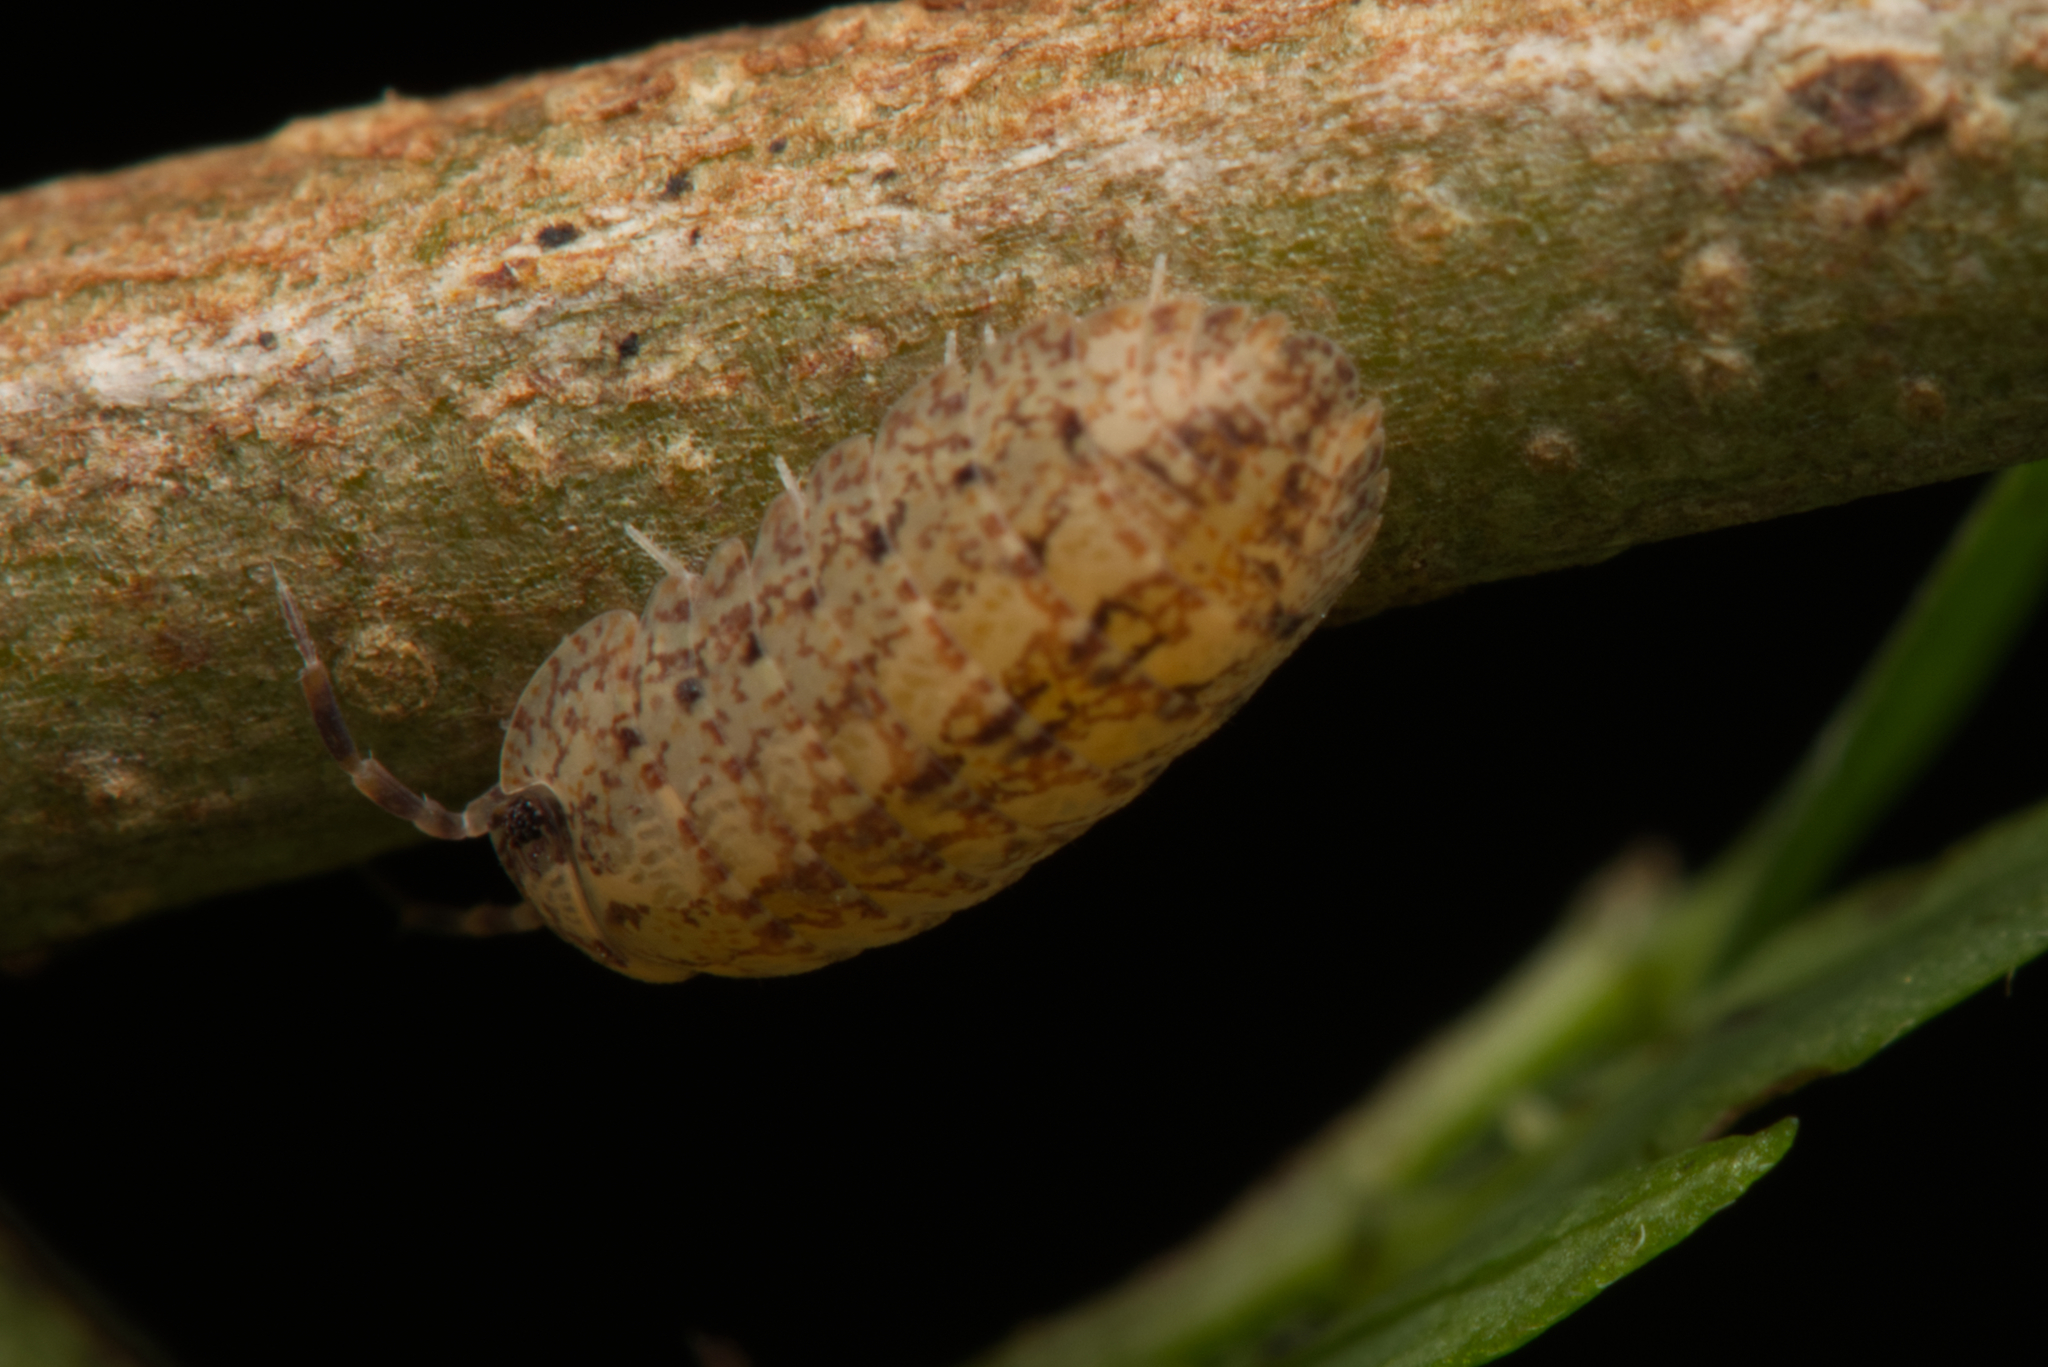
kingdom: Animalia
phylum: Arthropoda
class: Malacostraca
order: Isopoda
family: Armadillidae
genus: Cubaris
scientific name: Cubaris marmorata
